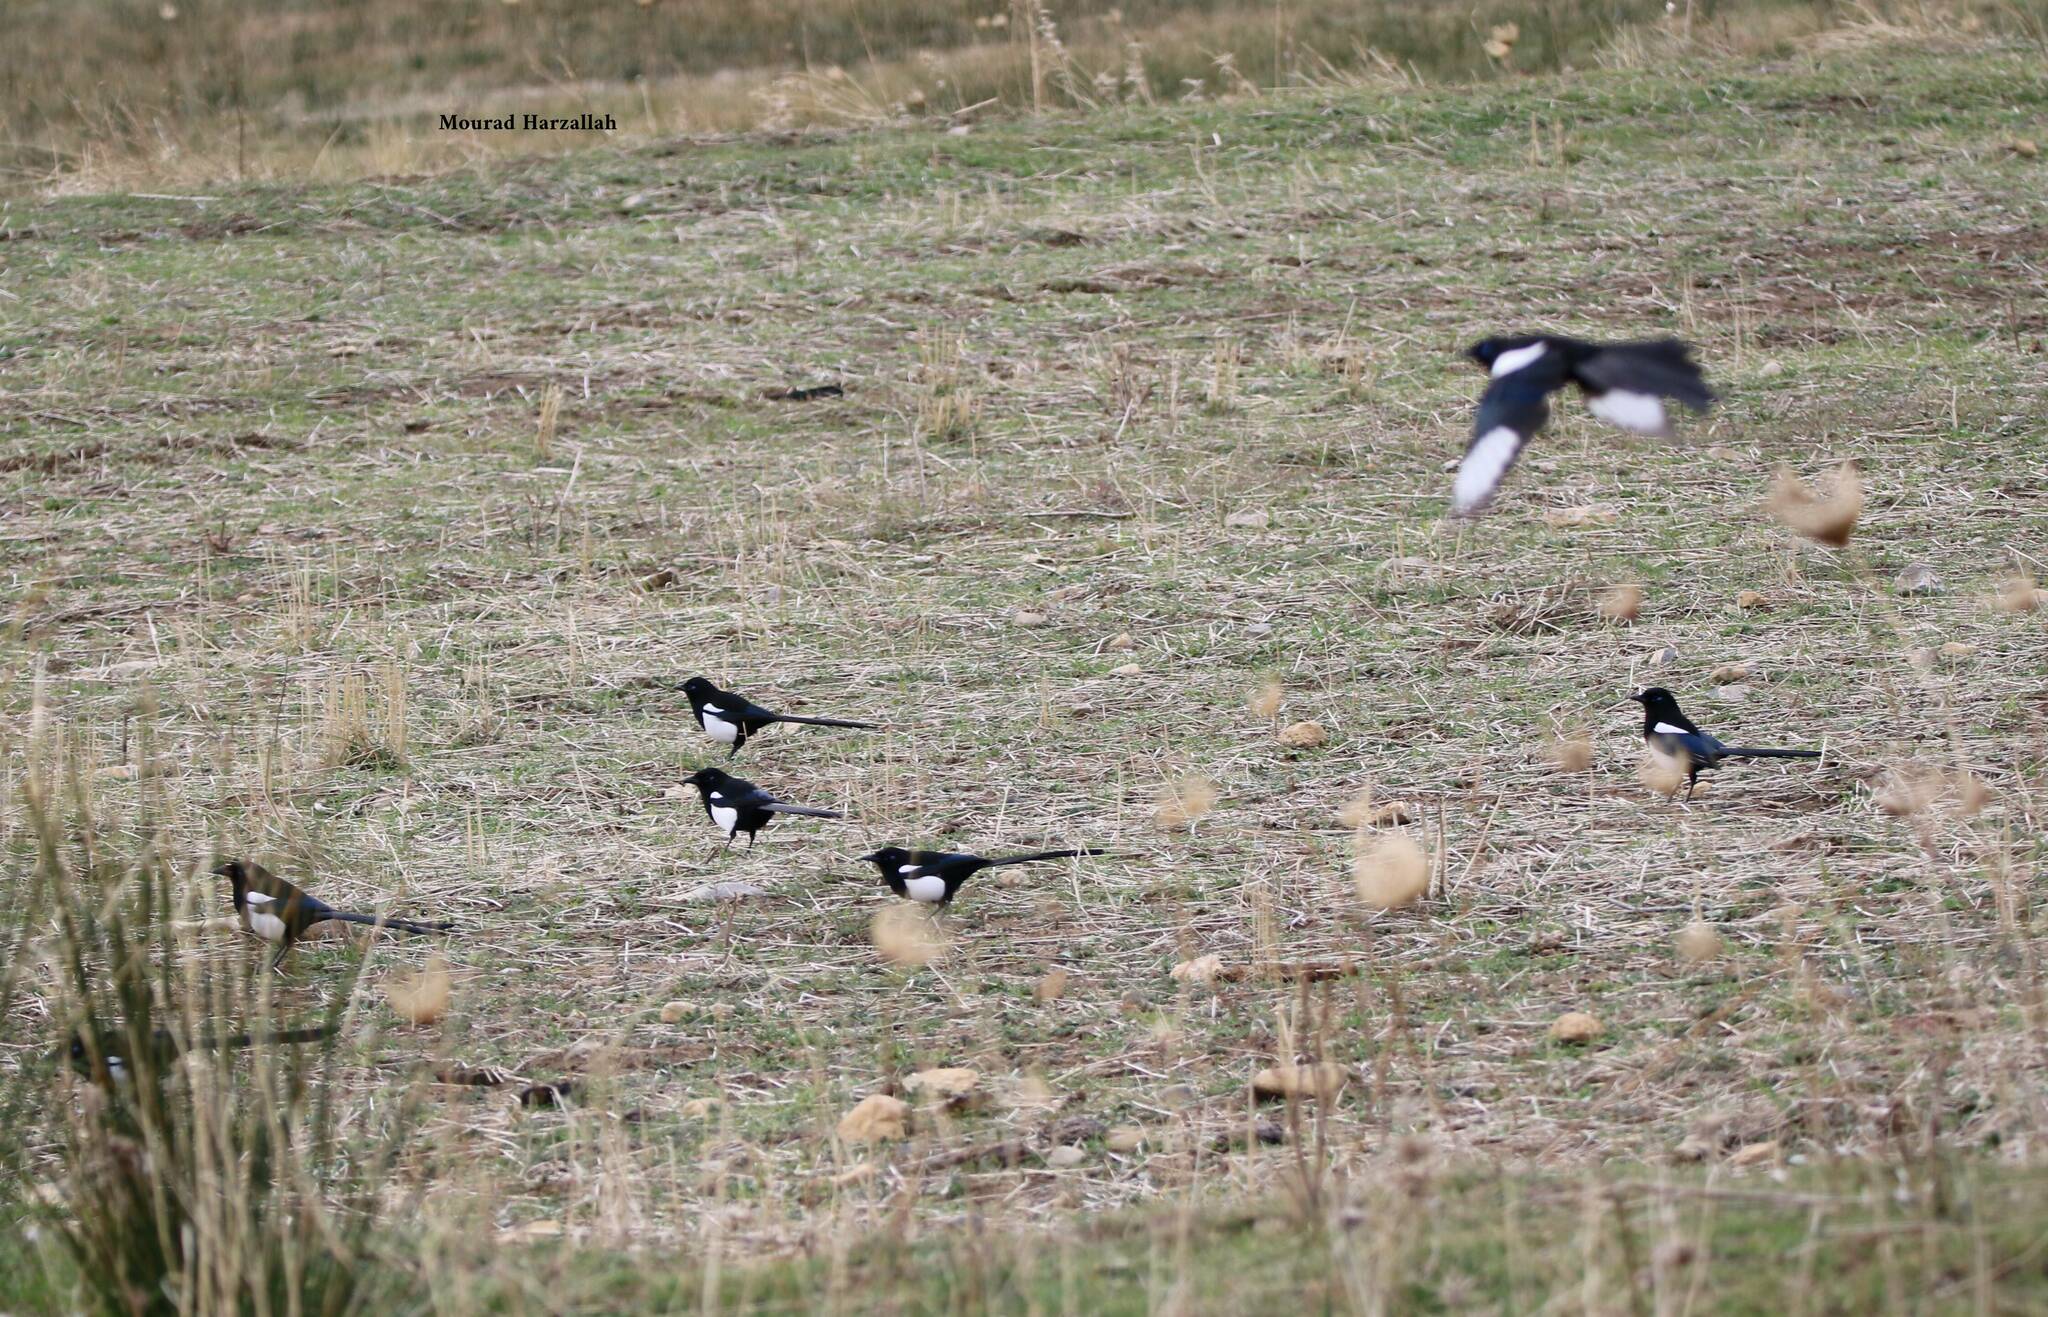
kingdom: Animalia
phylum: Chordata
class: Aves
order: Passeriformes
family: Corvidae
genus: Pica
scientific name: Pica mauritanica
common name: Maghreb magpie
